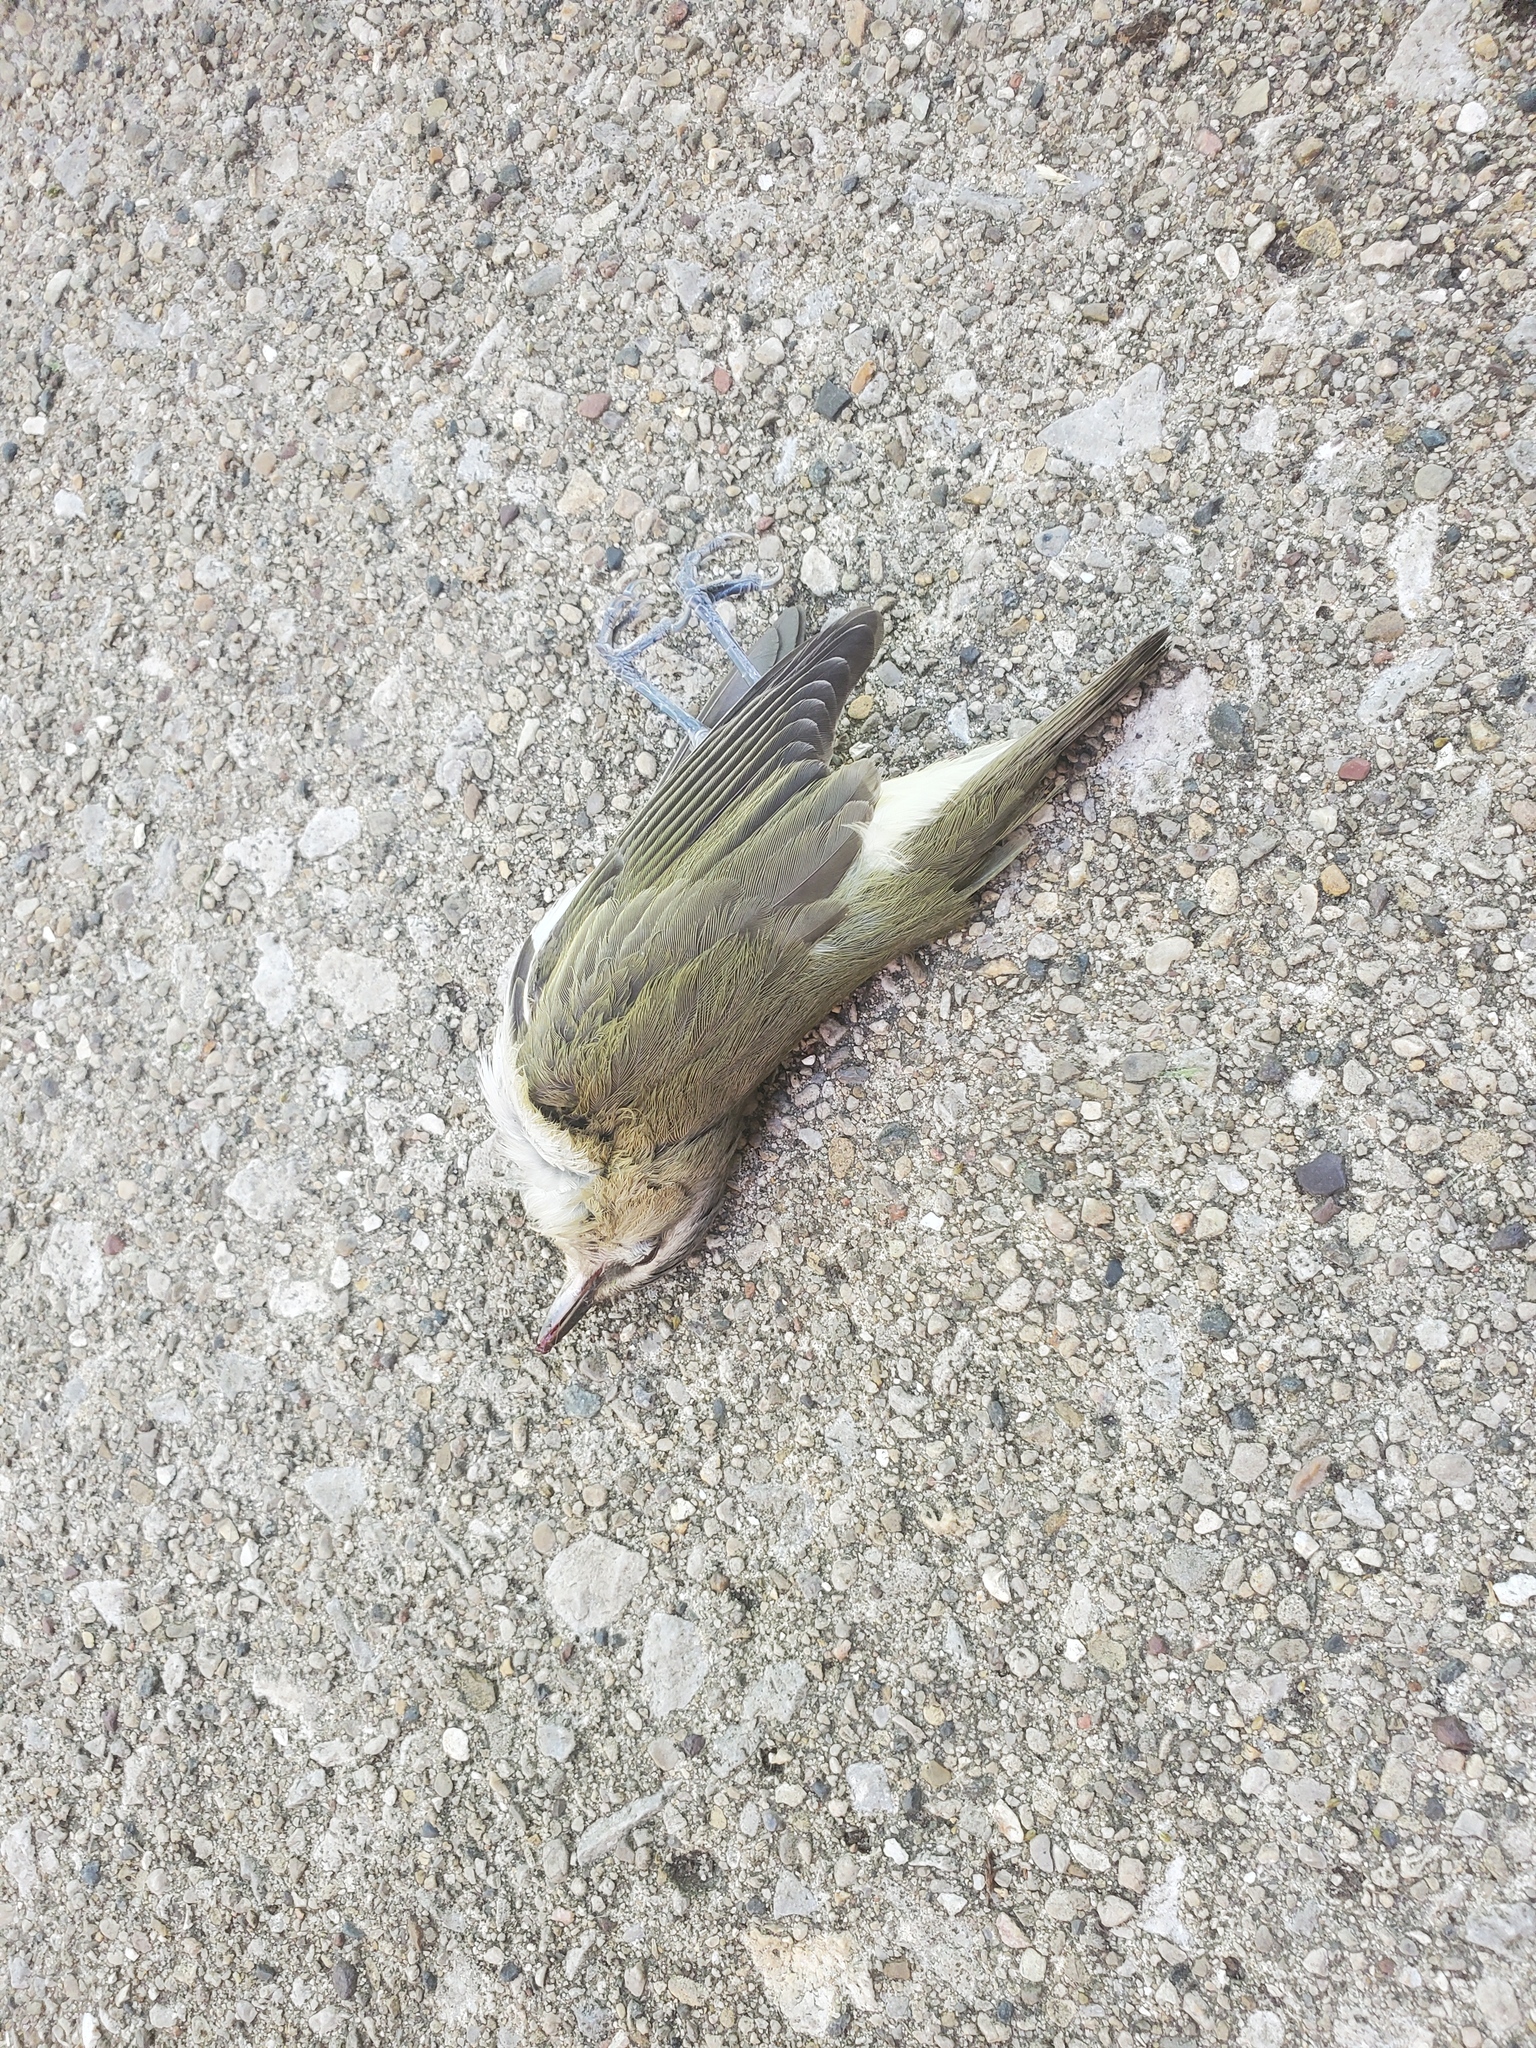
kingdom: Animalia
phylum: Chordata
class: Aves
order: Passeriformes
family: Vireonidae
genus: Vireo
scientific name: Vireo olivaceus
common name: Red-eyed vireo
